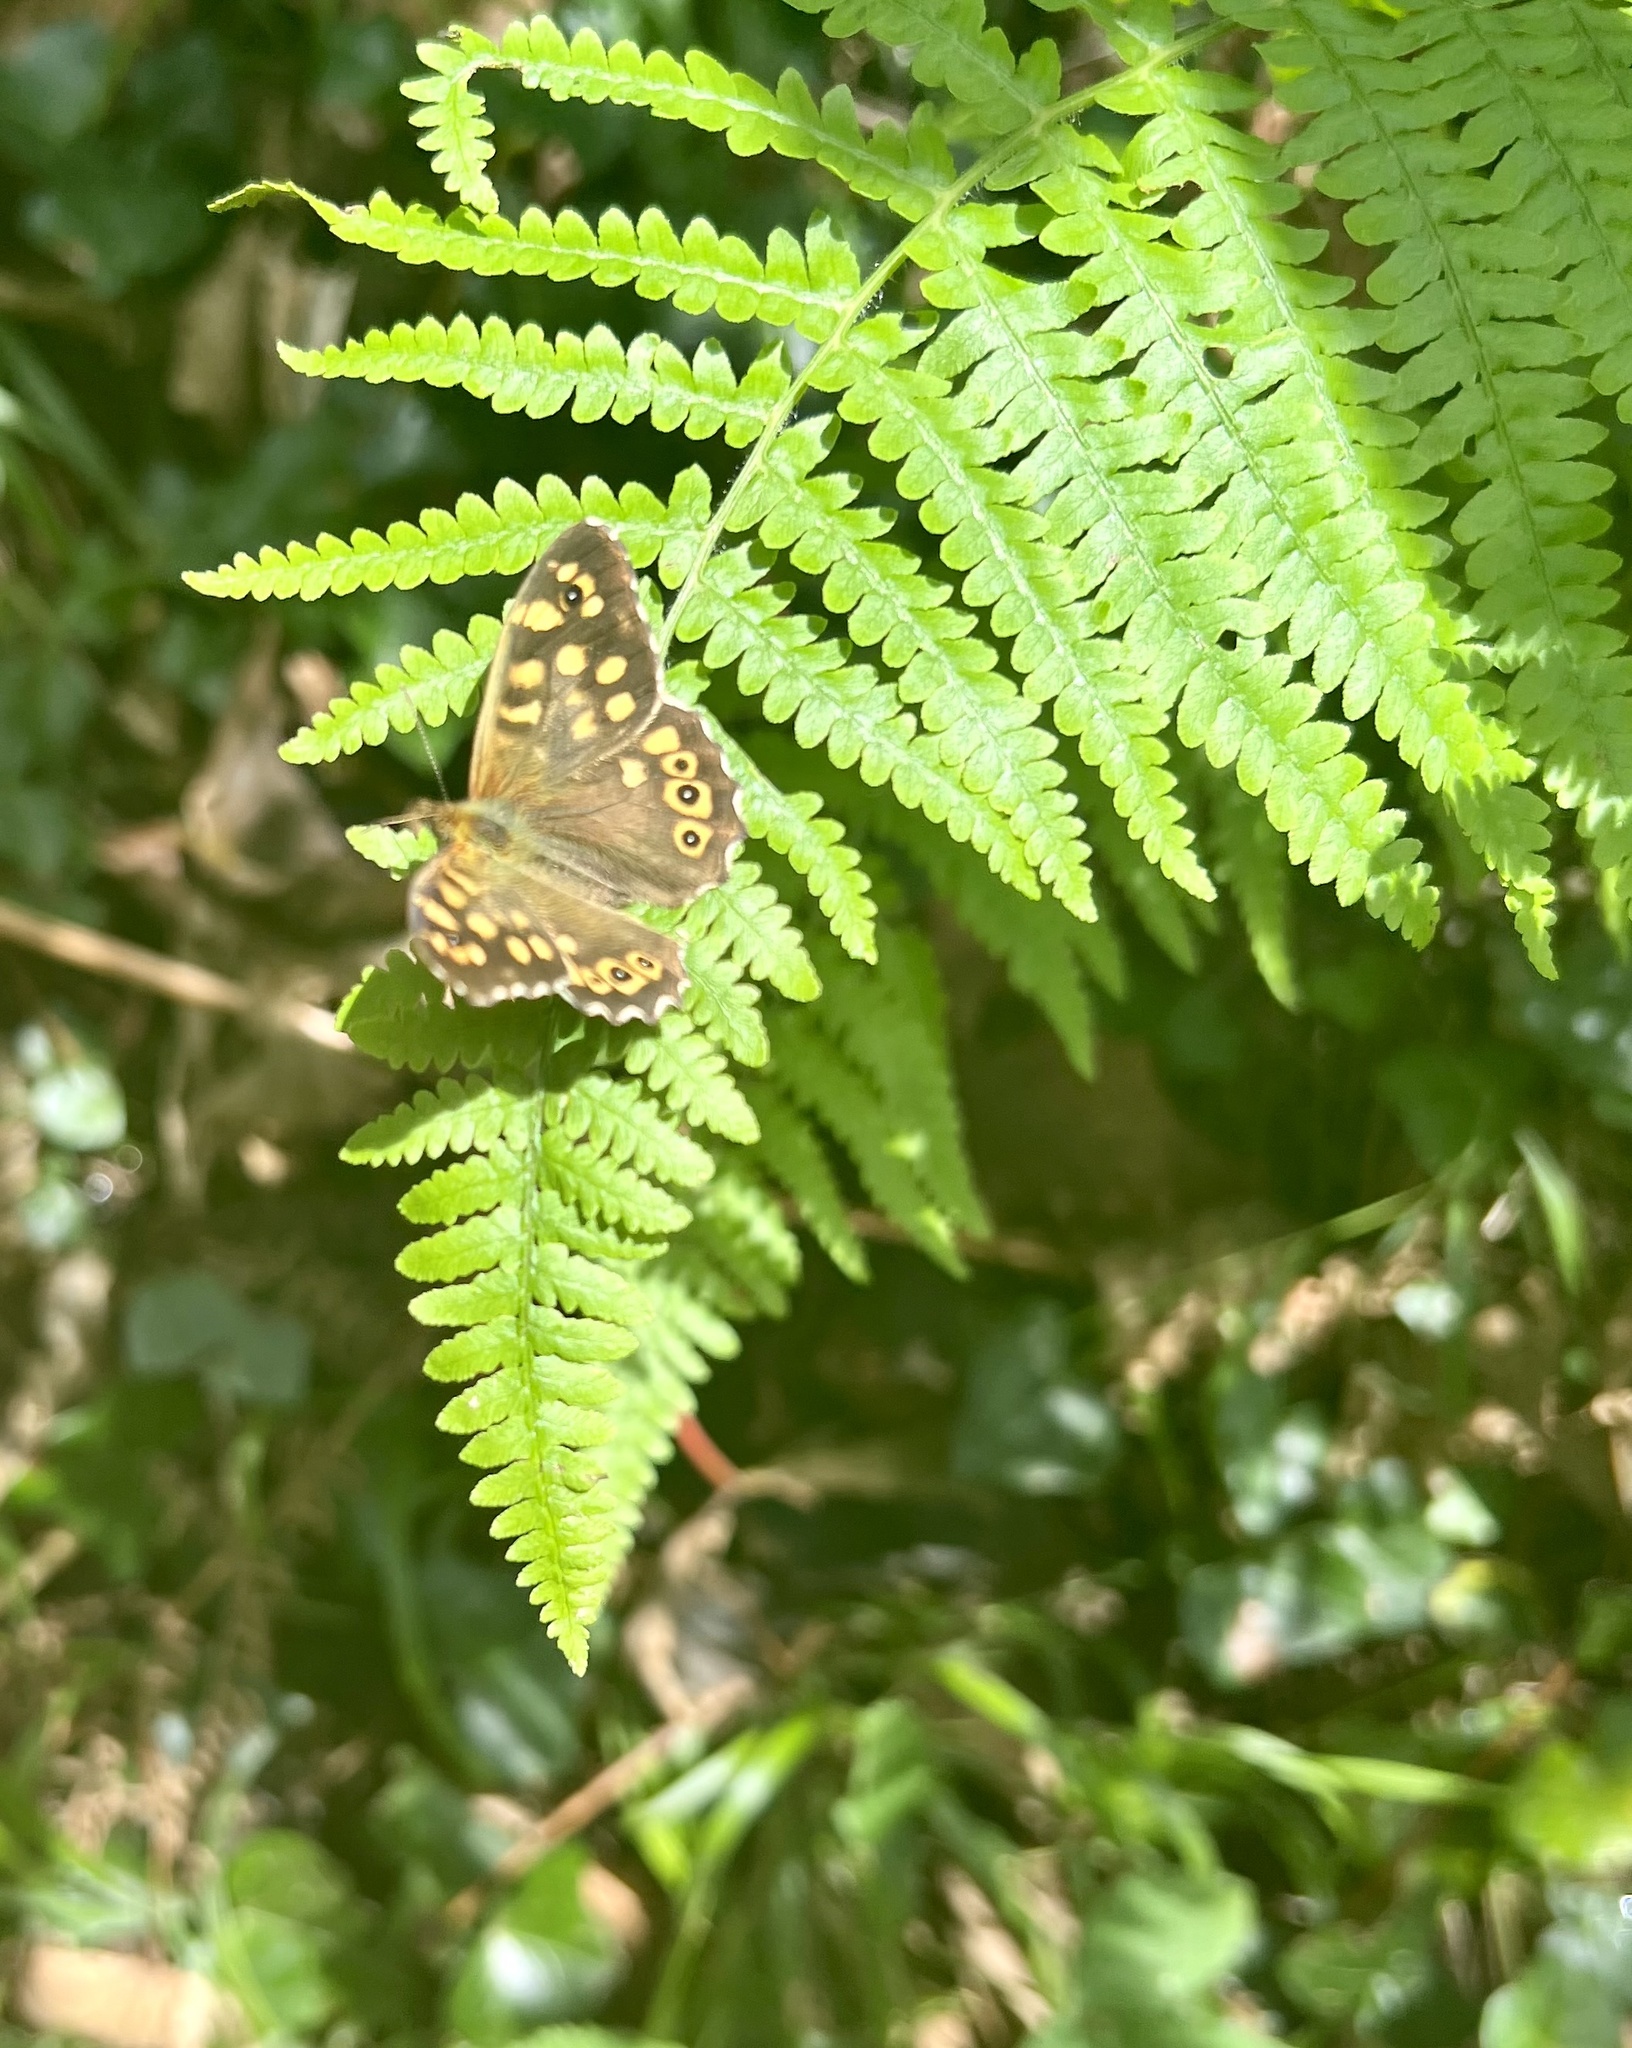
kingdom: Animalia
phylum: Arthropoda
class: Insecta
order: Lepidoptera
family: Nymphalidae
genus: Pararge
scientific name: Pararge aegeria
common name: Speckled wood
